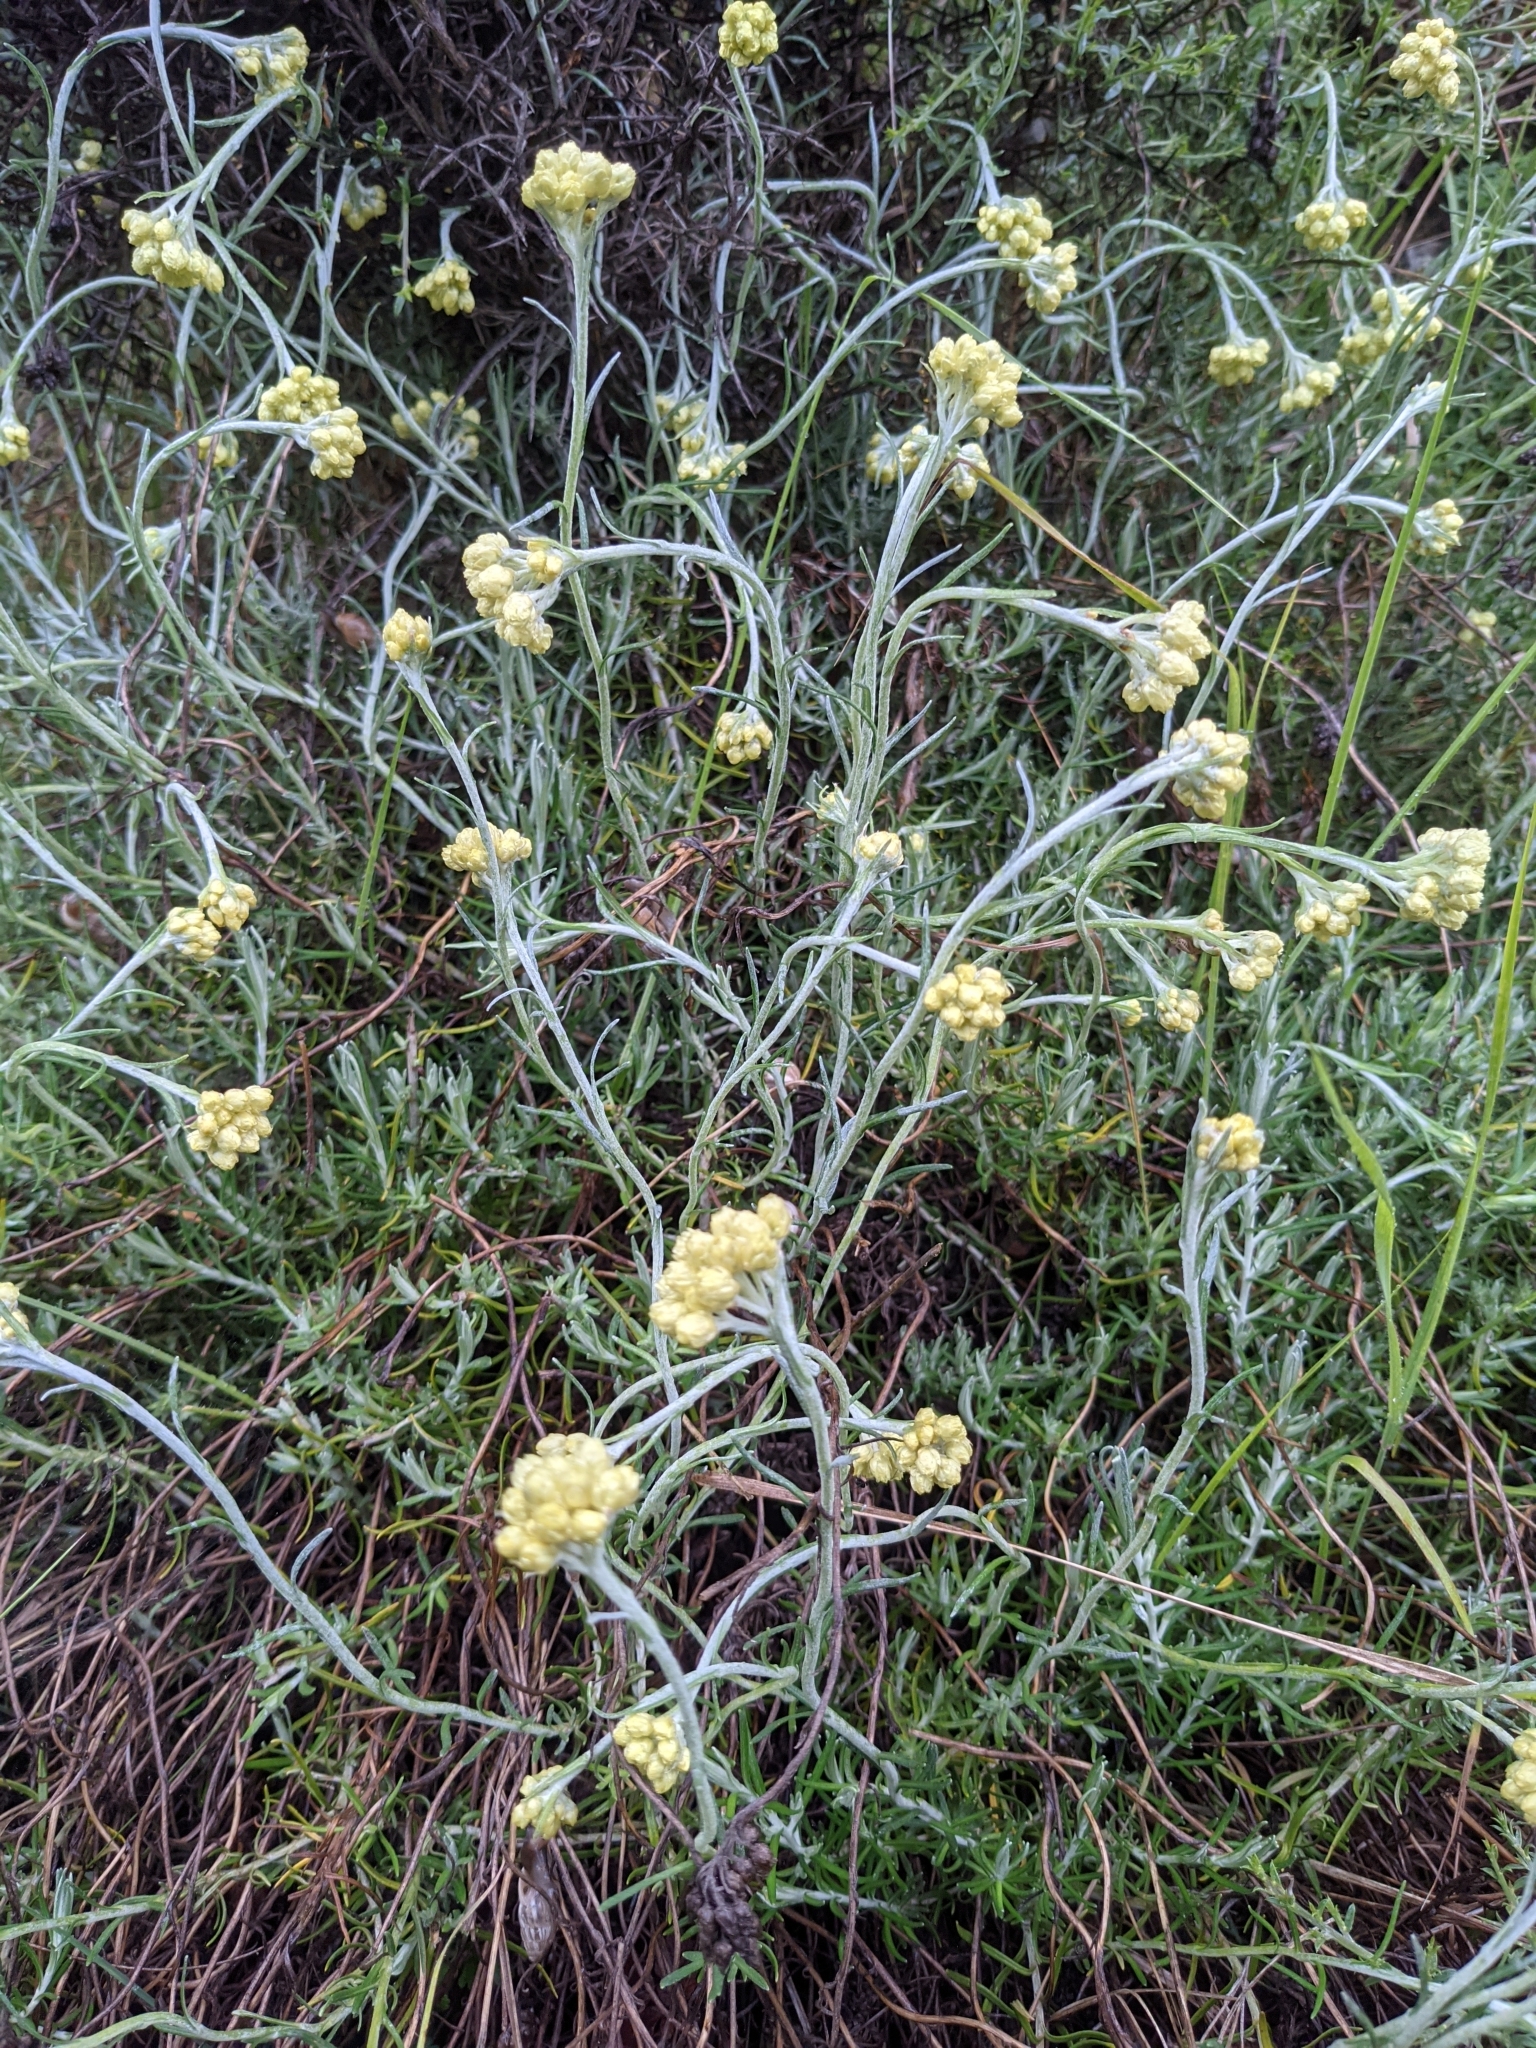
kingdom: Plantae
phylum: Tracheophyta
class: Magnoliopsida
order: Asterales
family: Asteraceae
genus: Helichrysum
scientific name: Helichrysum stoechas
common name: Goldilocks
